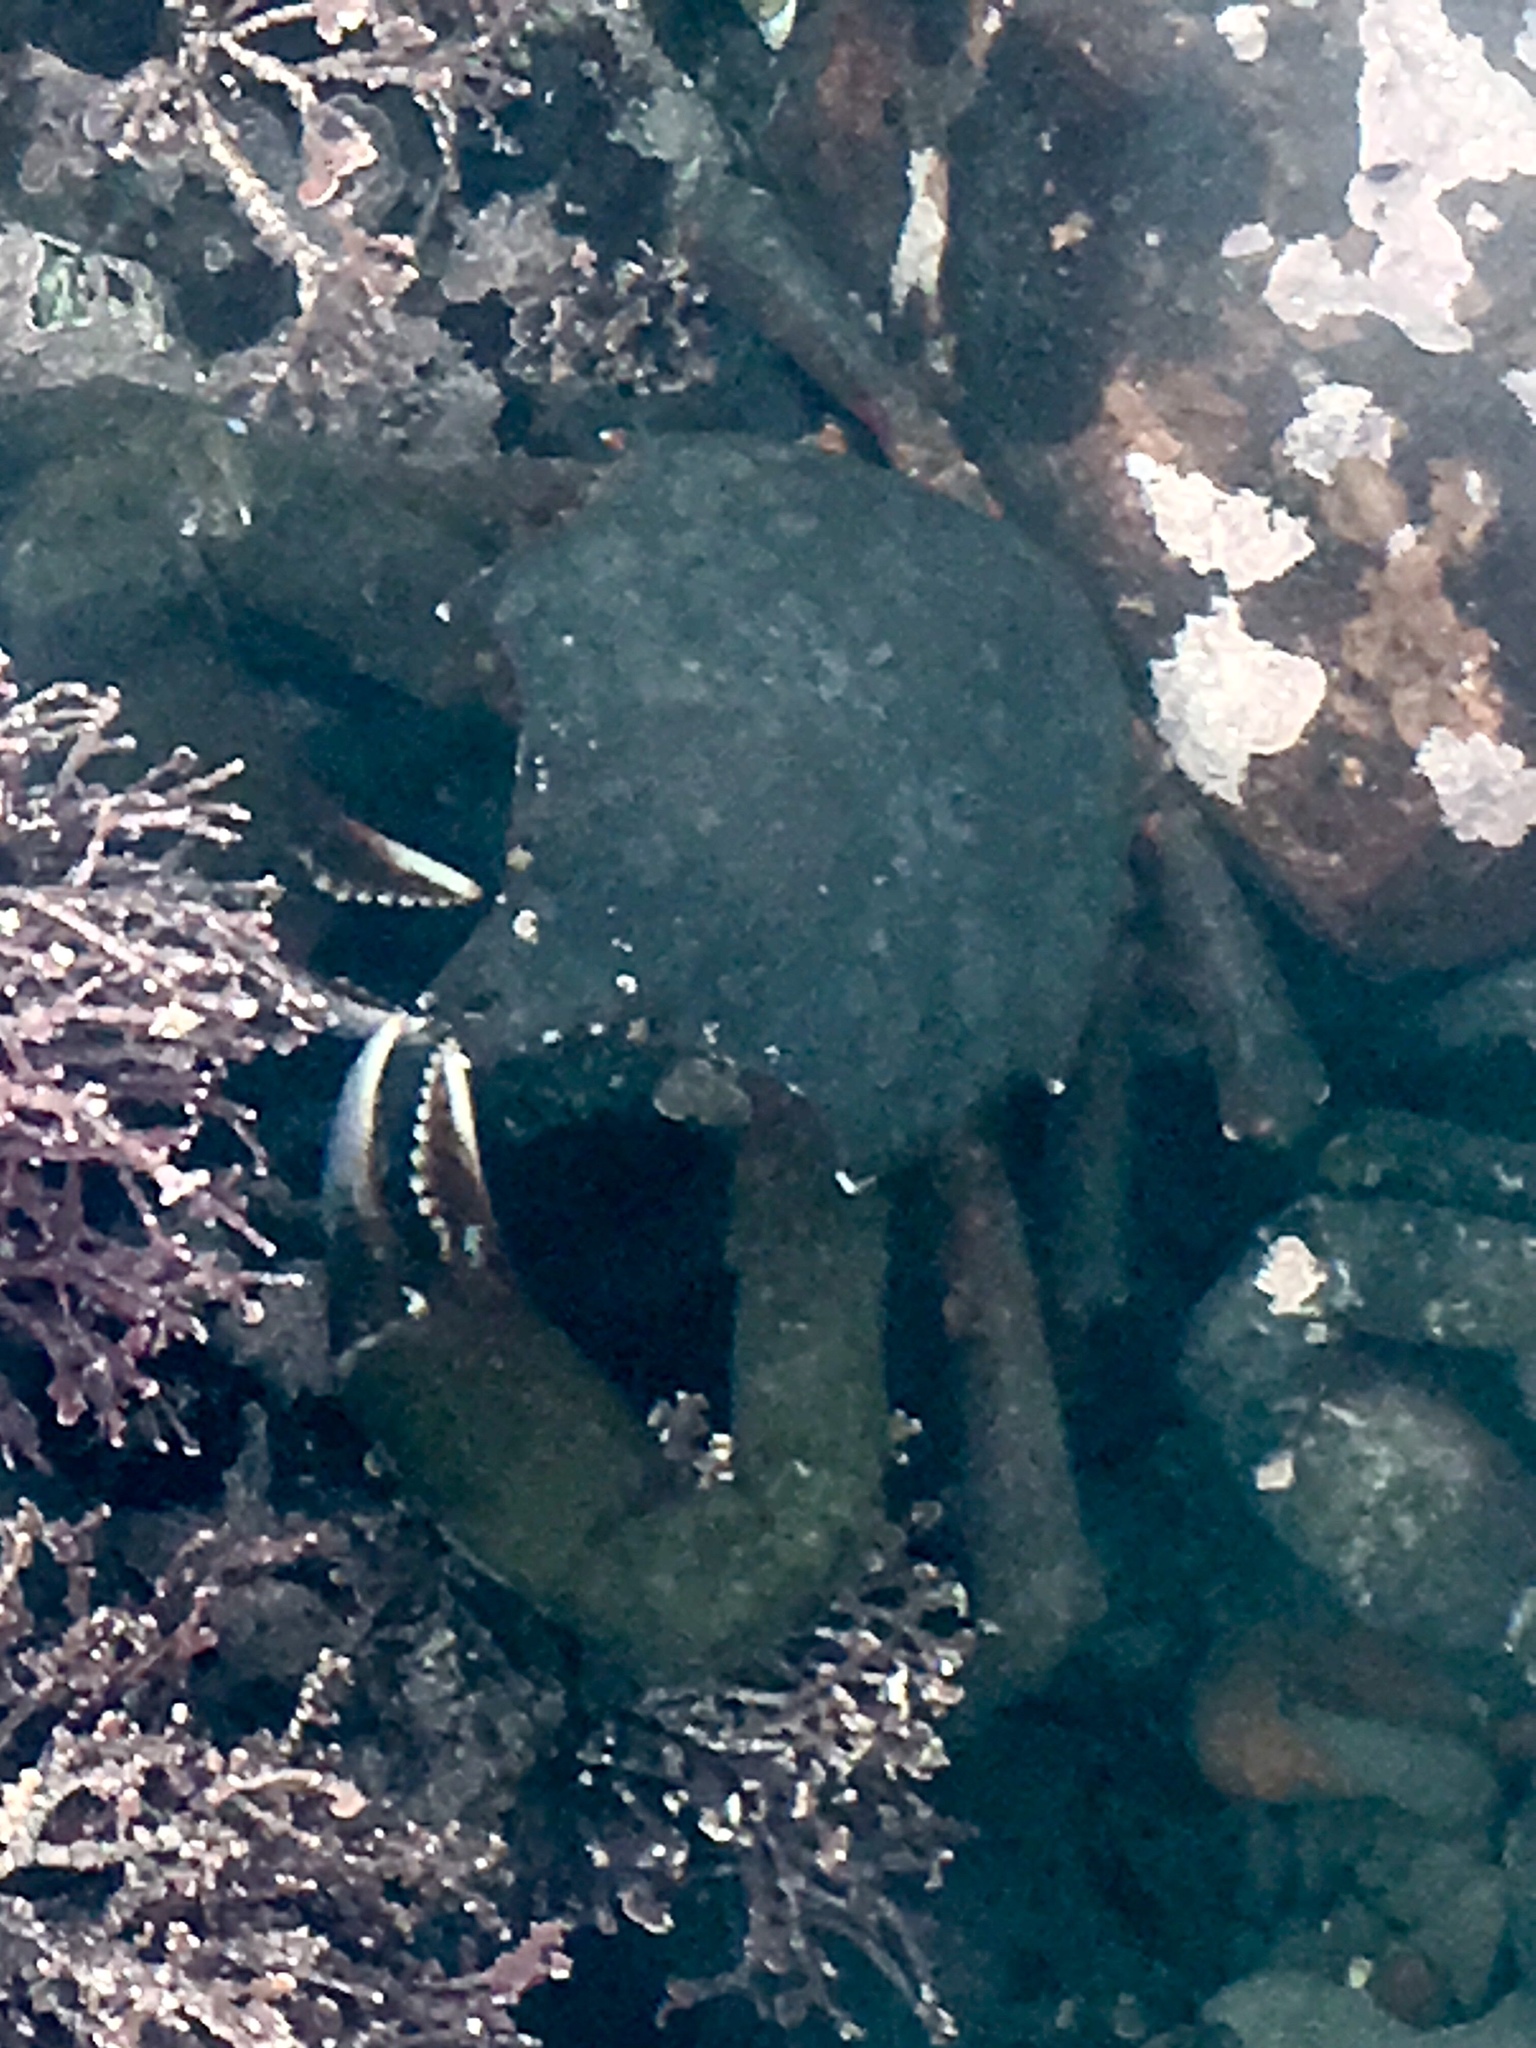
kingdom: Animalia
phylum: Arthropoda
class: Malacostraca
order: Decapoda
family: Epialtidae
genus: Pugettia
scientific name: Pugettia producta
